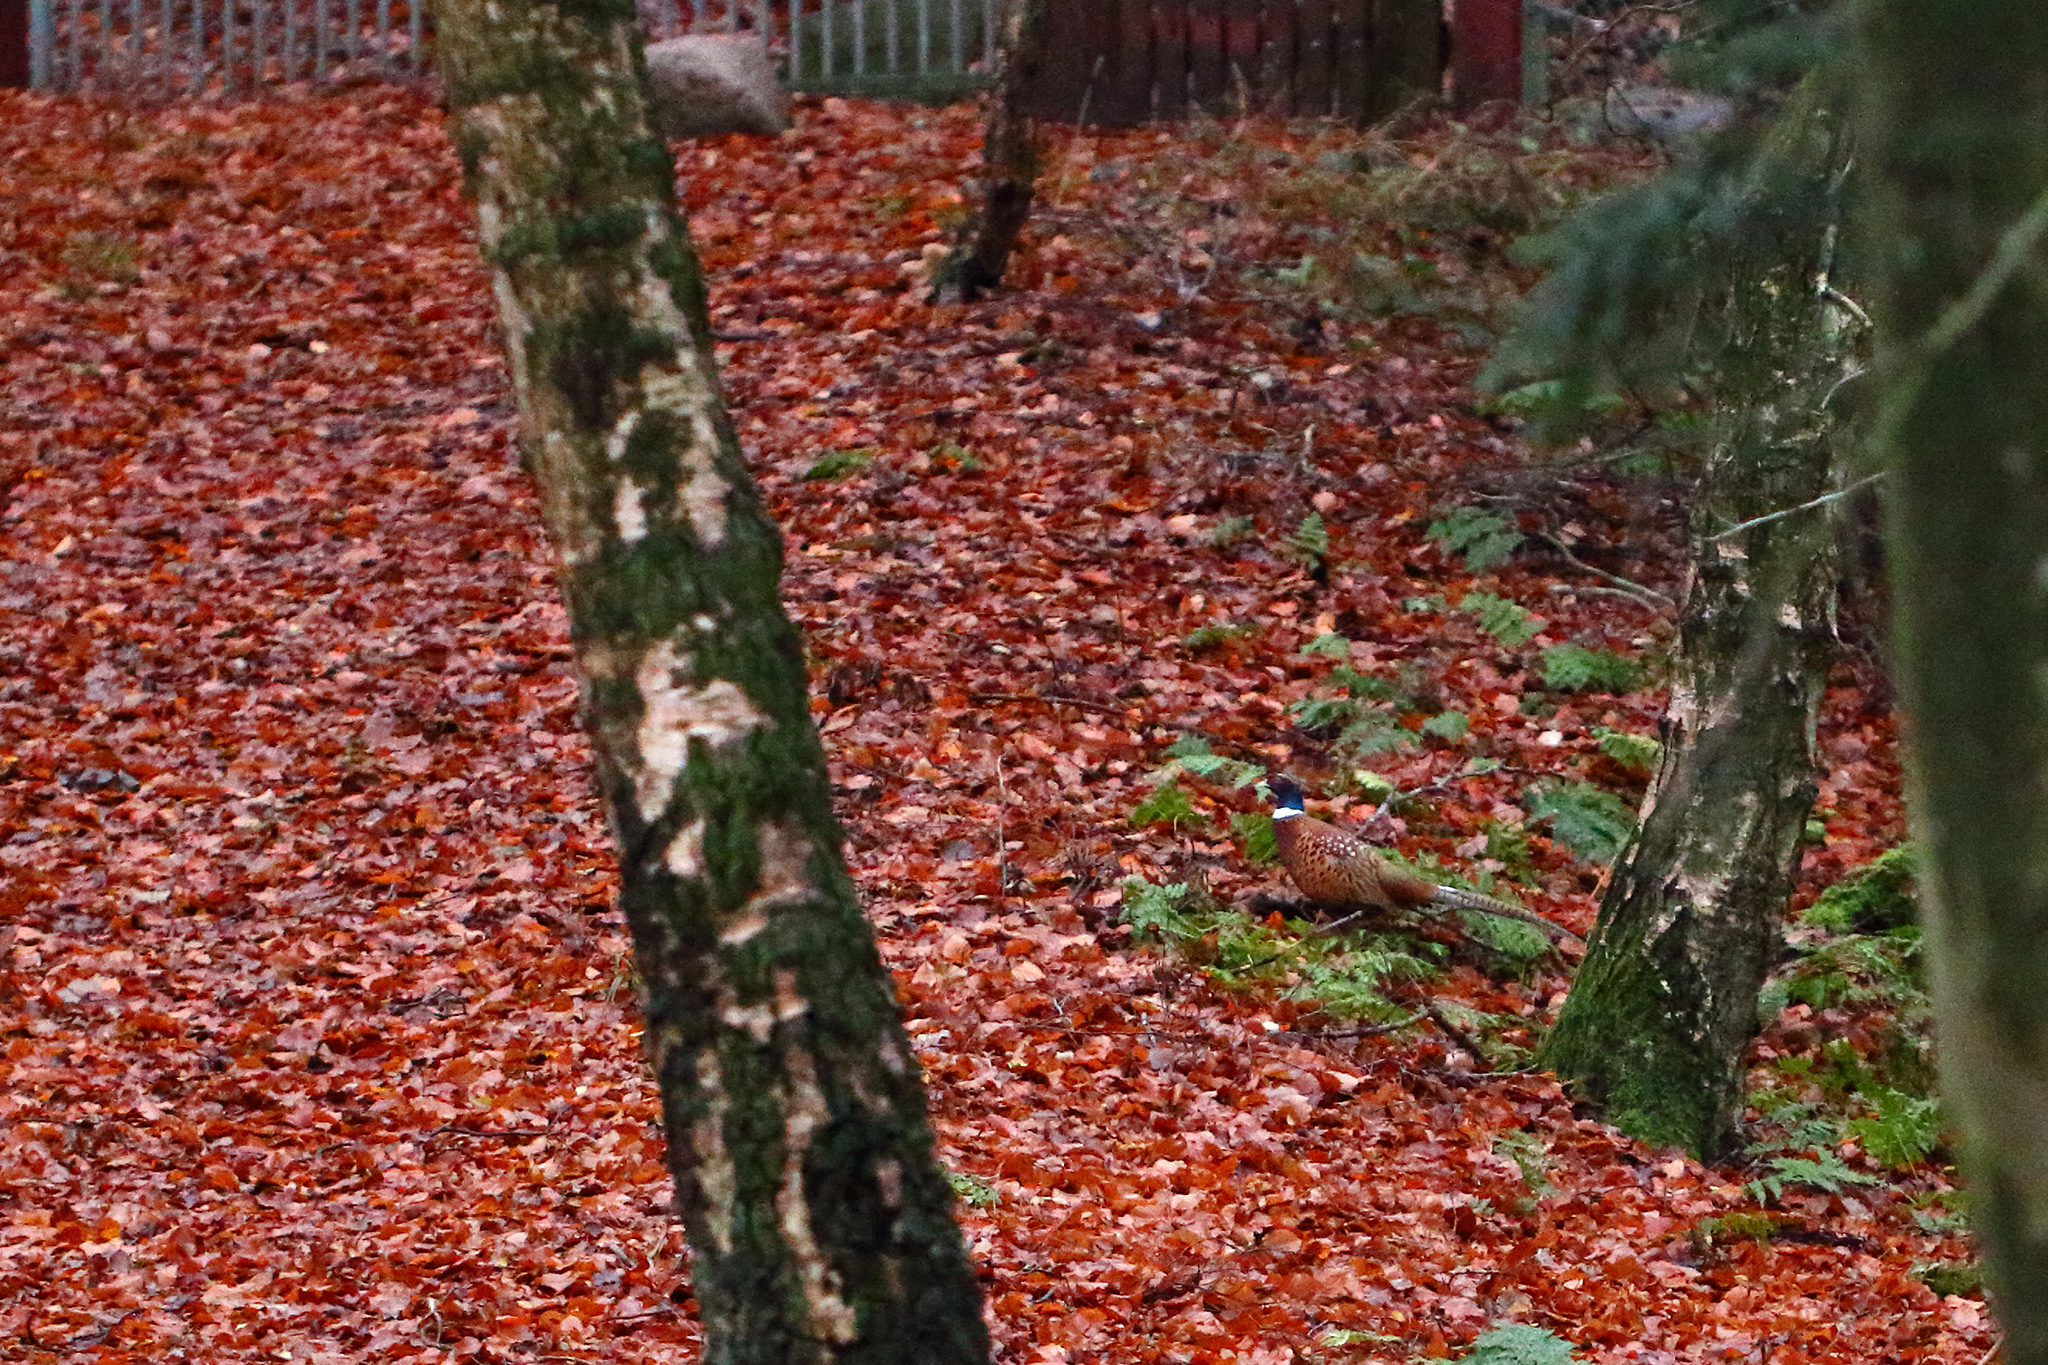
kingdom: Animalia
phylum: Chordata
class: Aves
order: Galliformes
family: Phasianidae
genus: Phasianus
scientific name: Phasianus colchicus
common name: Common pheasant
